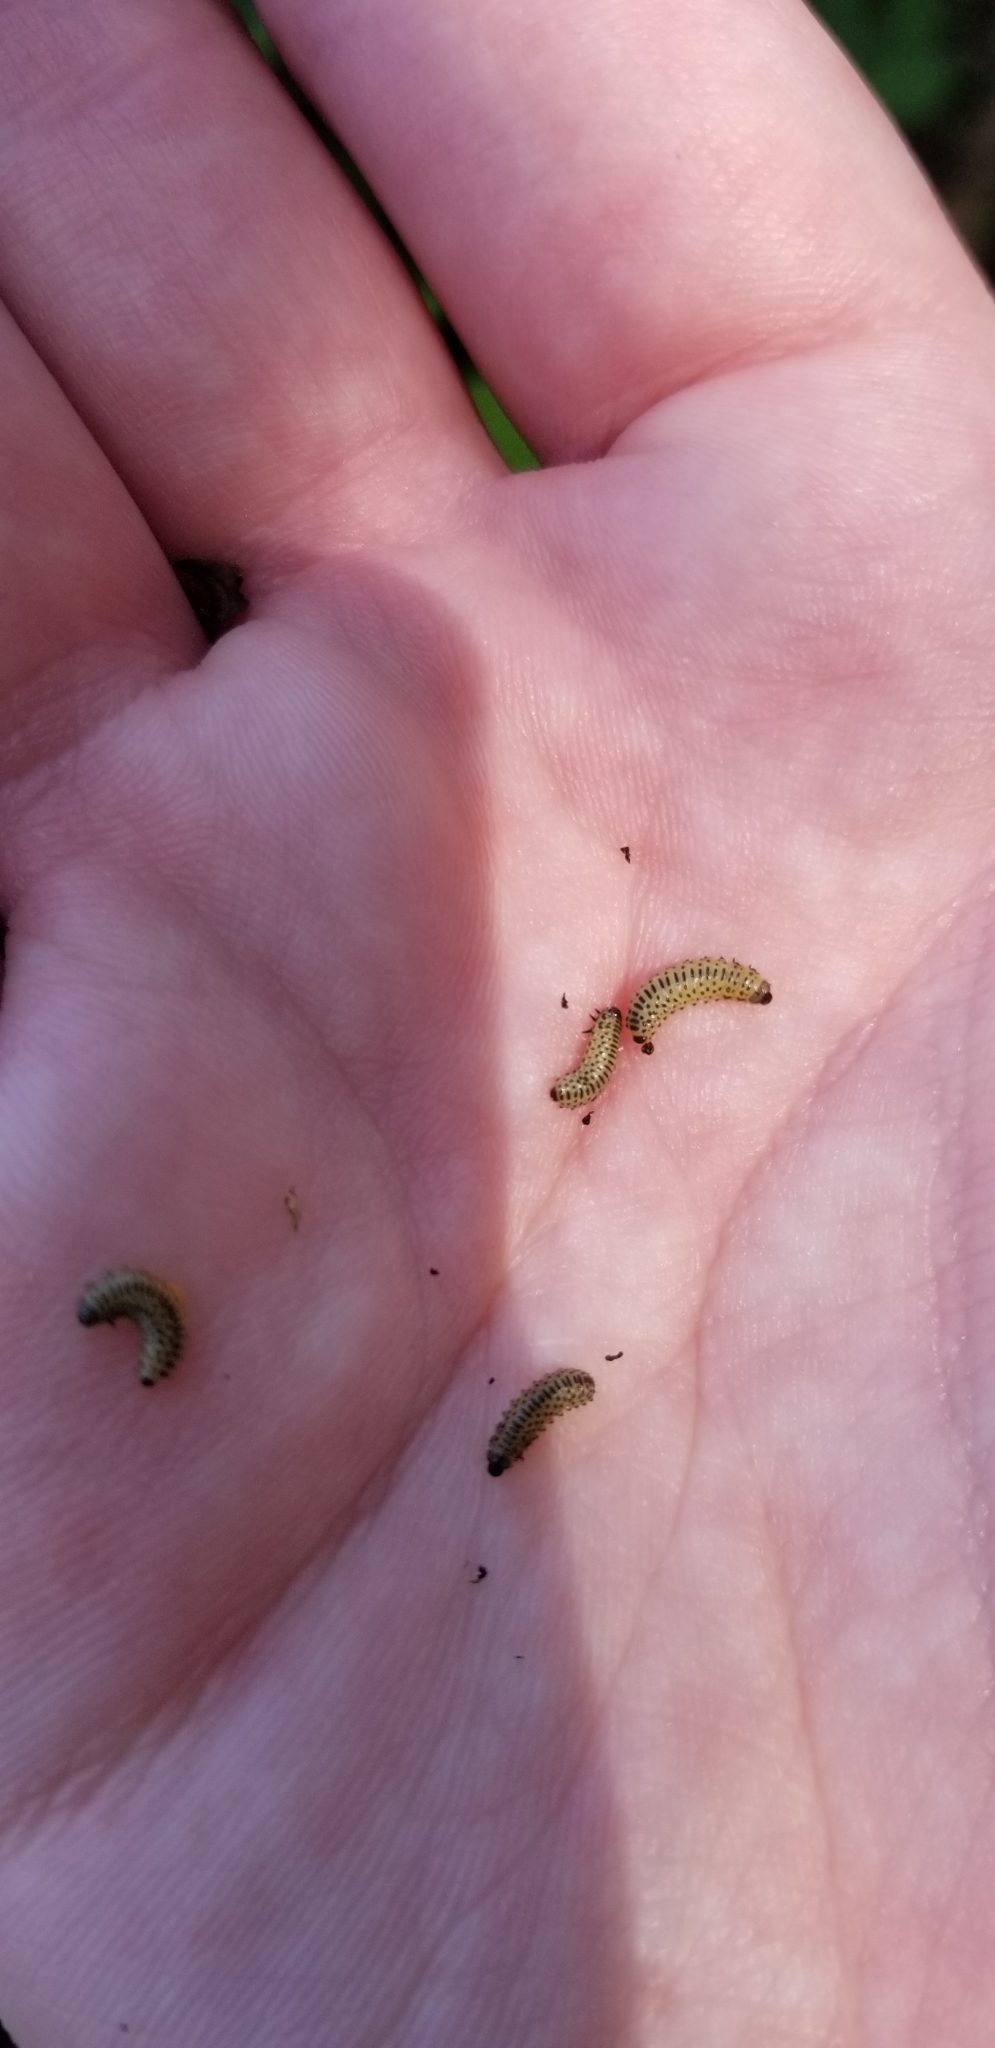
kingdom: Animalia
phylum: Arthropoda
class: Insecta
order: Coleoptera
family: Chrysomelidae
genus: Pyrrhalta
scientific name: Pyrrhalta viburni
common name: Guelder-rose leaf beetle
